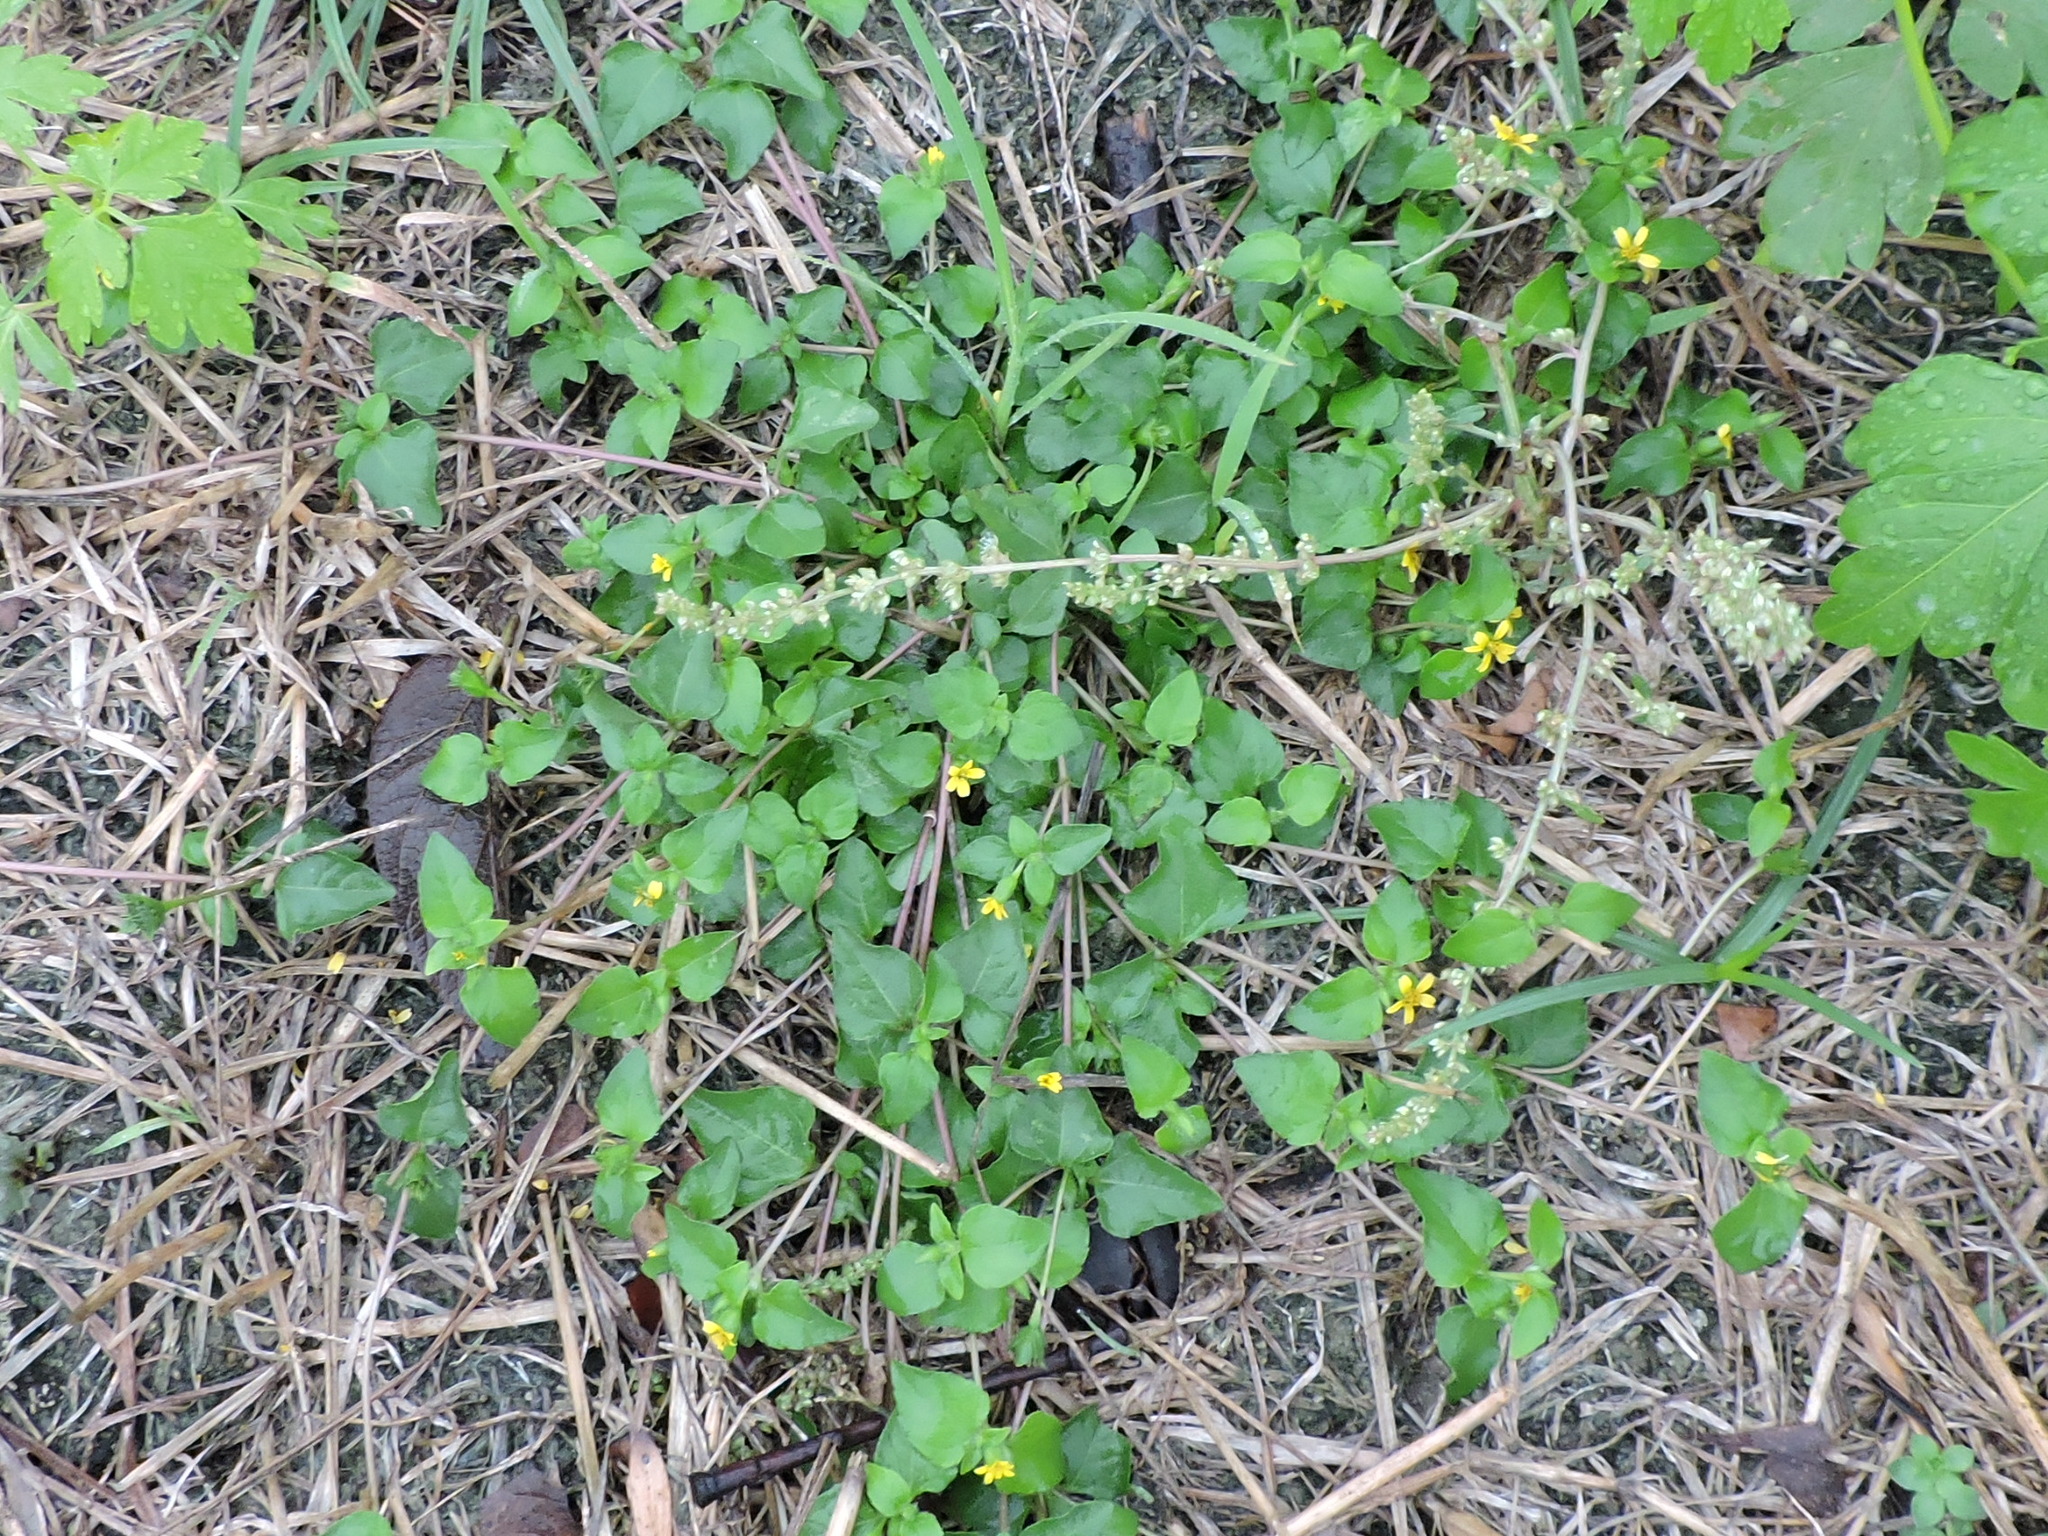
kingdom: Plantae
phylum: Tracheophyta
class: Magnoliopsida
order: Asterales
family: Asteraceae
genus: Calyptocarpus
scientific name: Calyptocarpus vialis
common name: Straggler daisy
